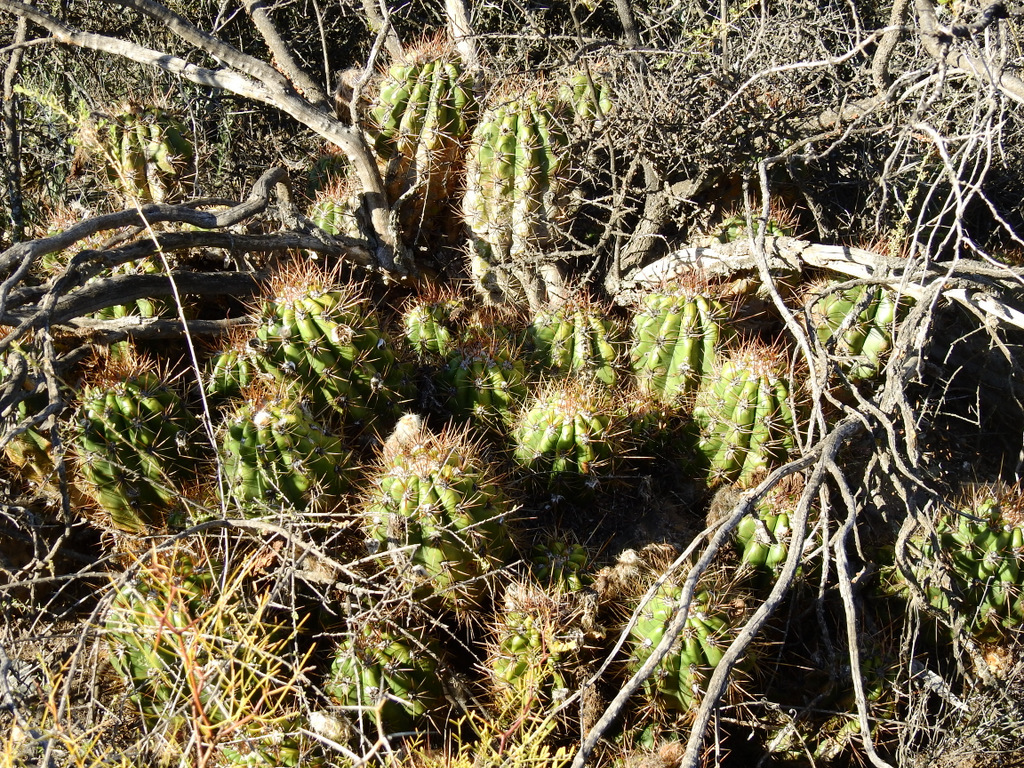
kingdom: Plantae
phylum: Tracheophyta
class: Magnoliopsida
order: Caryophyllales
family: Cactaceae
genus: Soehrensia
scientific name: Soehrensia candicans
